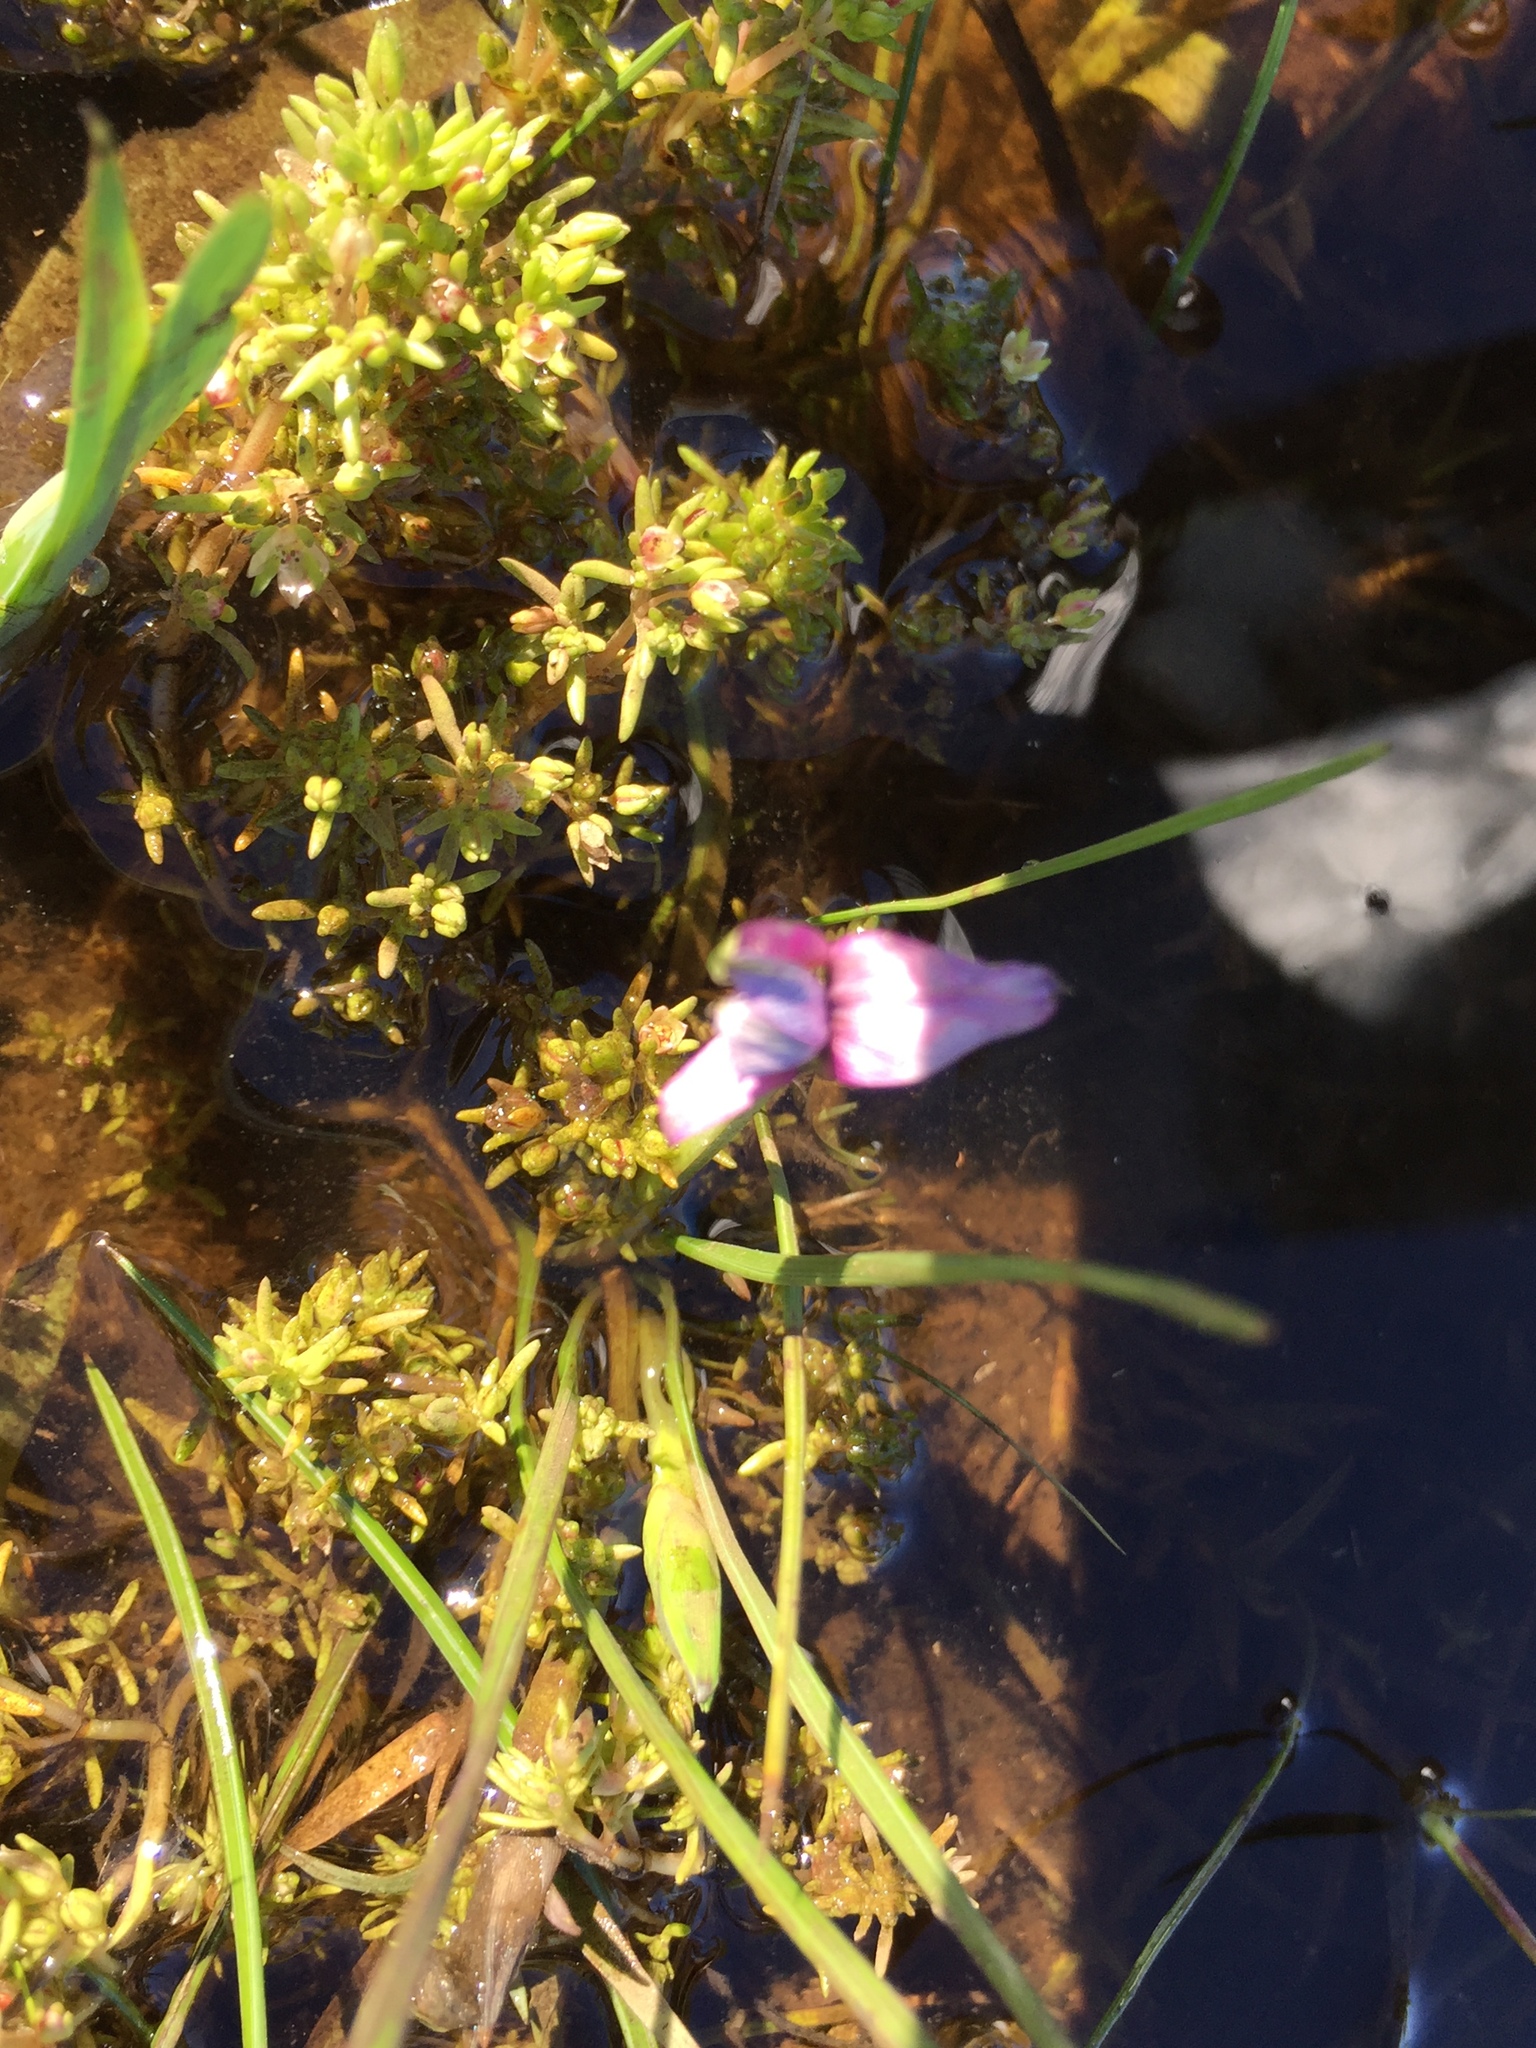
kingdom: Plantae
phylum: Tracheophyta
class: Magnoliopsida
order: Saxifragales
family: Crassulaceae
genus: Crassula
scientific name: Crassula natans
